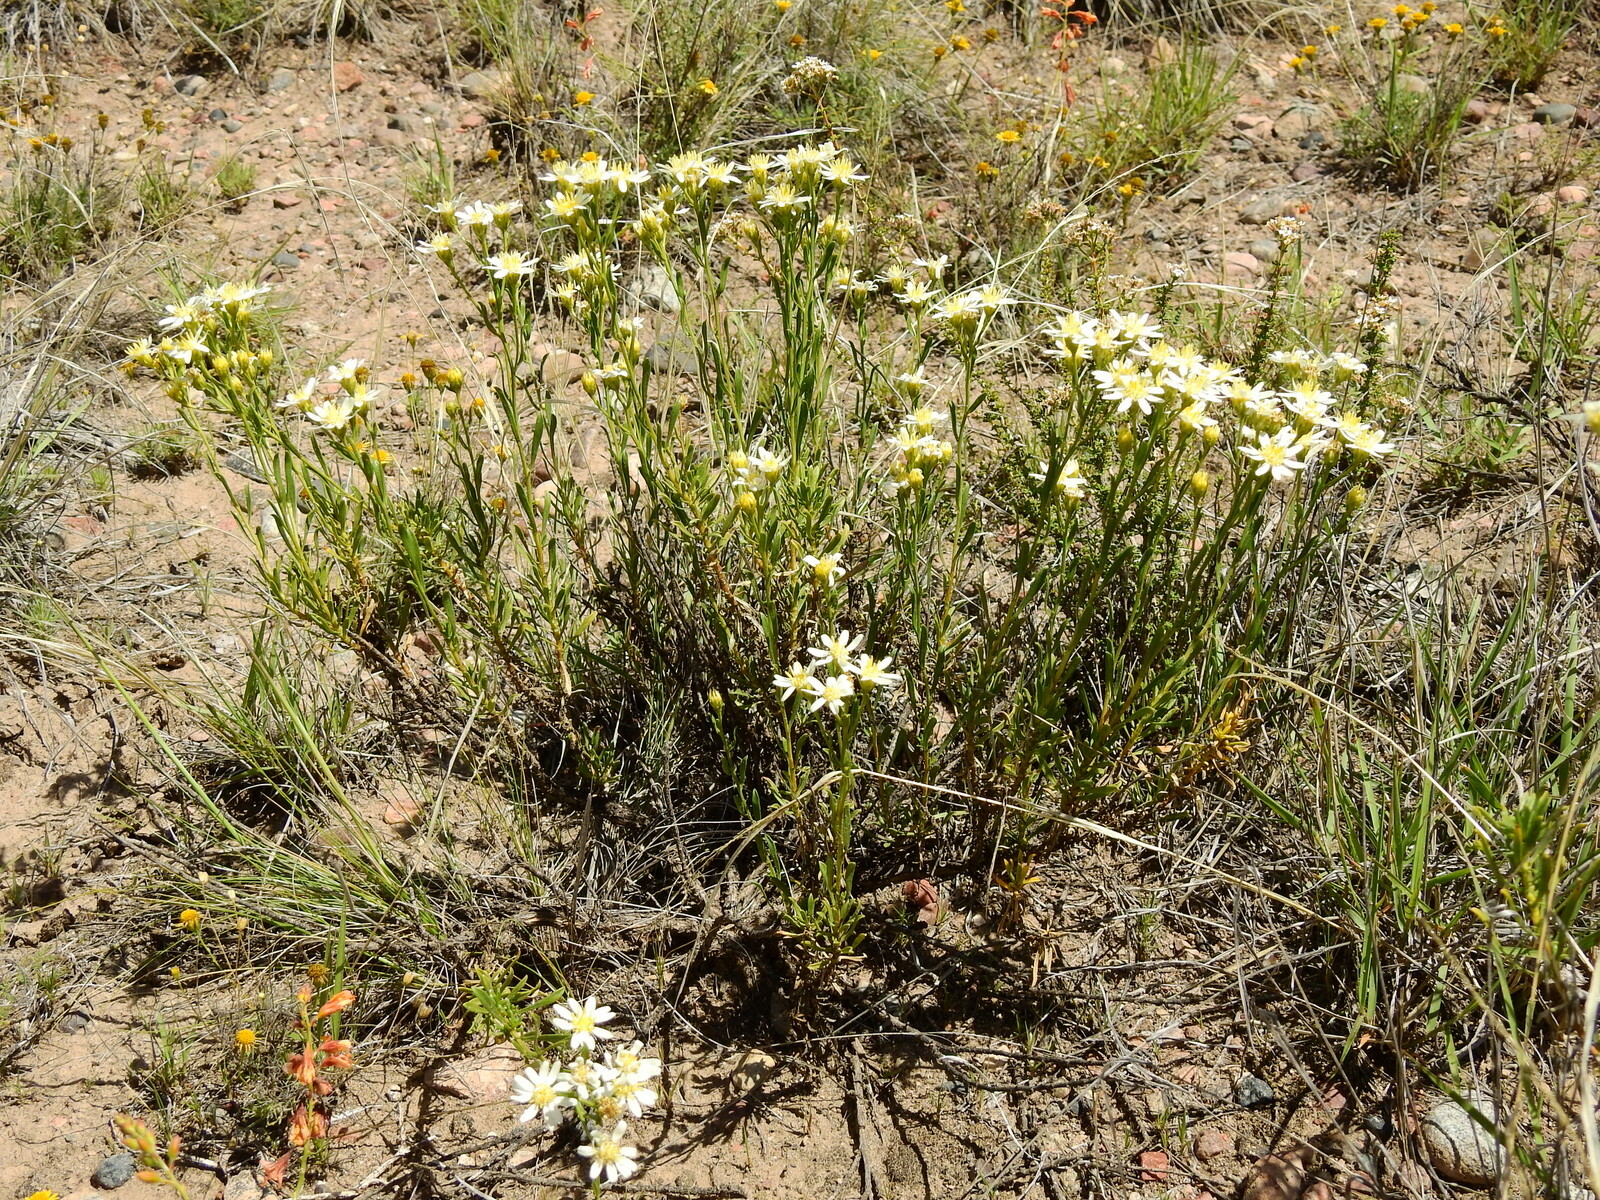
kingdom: Plantae
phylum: Tracheophyta
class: Magnoliopsida
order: Asterales
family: Asteraceae
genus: Gutierrezia
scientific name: Gutierrezia solbrigii
